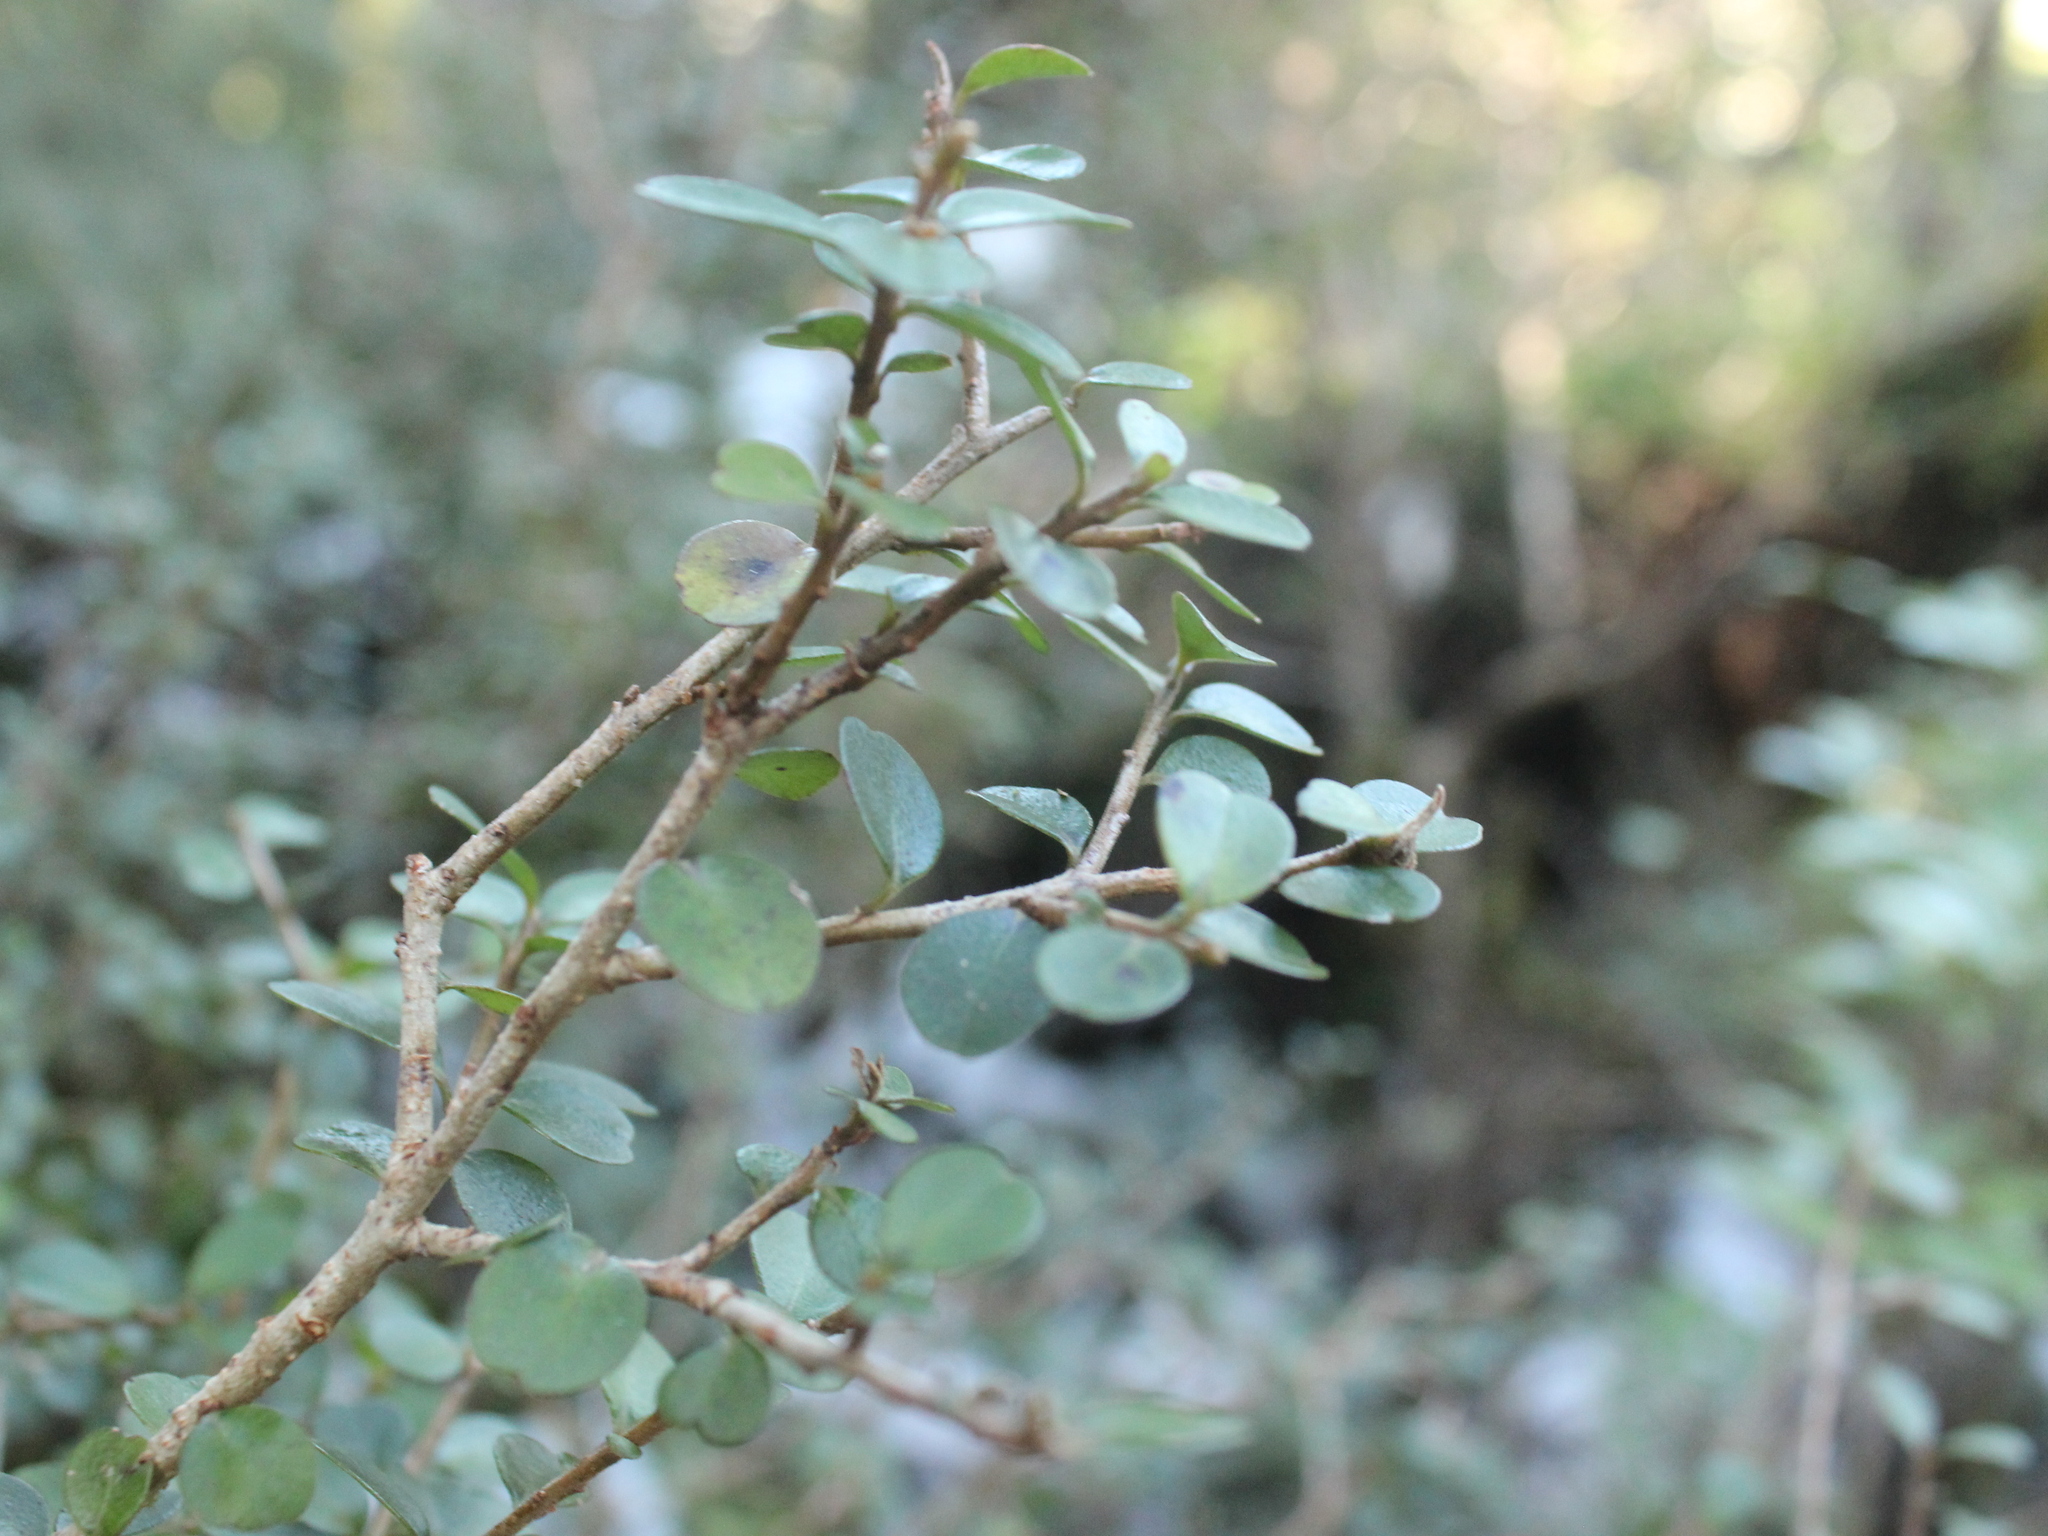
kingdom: Plantae
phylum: Tracheophyta
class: Magnoliopsida
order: Ericales
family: Primulaceae
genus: Myrsine
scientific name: Myrsine umbricola
